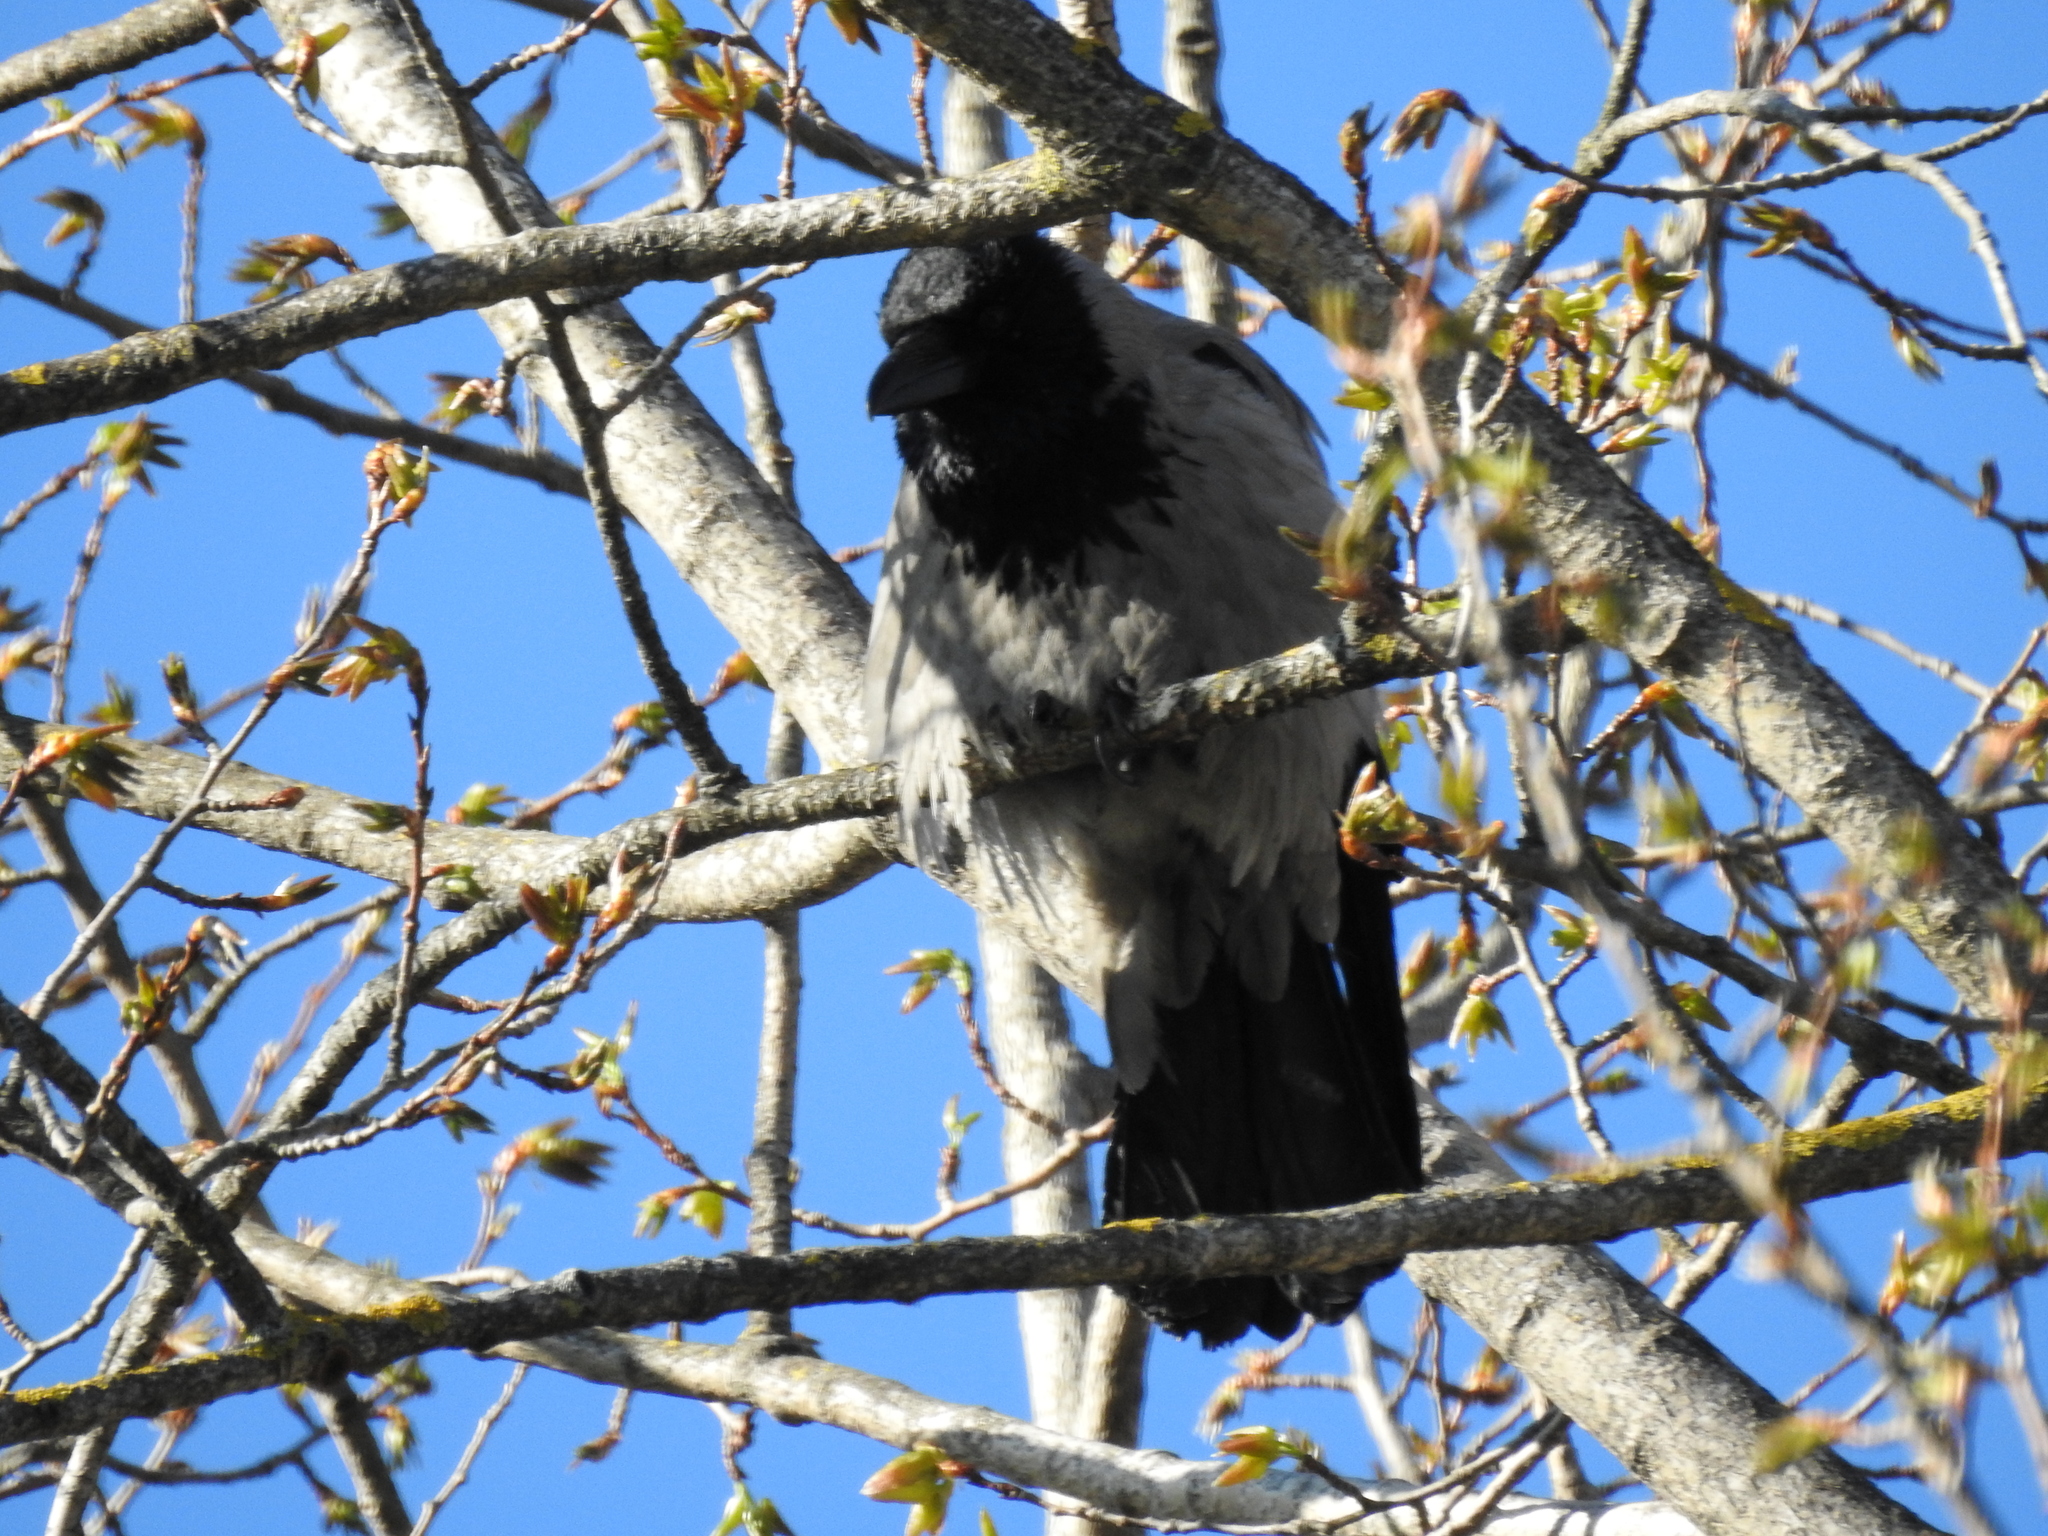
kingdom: Animalia
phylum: Chordata
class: Aves
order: Passeriformes
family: Corvidae
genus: Corvus
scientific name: Corvus cornix
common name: Hooded crow
